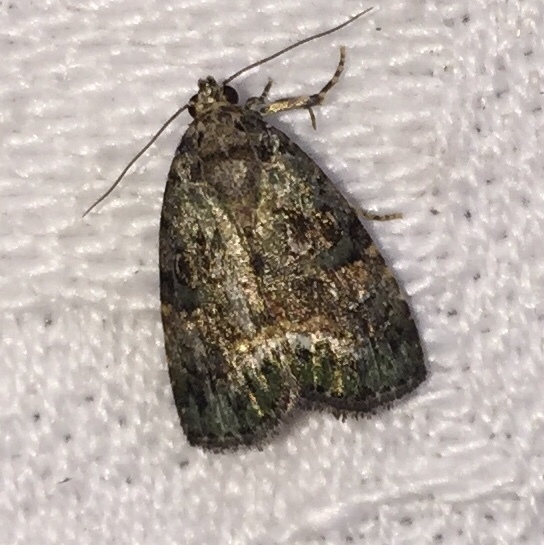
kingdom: Animalia
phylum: Arthropoda
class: Insecta
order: Lepidoptera
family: Noctuidae
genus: Lithacodia
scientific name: Lithacodia musta
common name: Small mossy glyph
